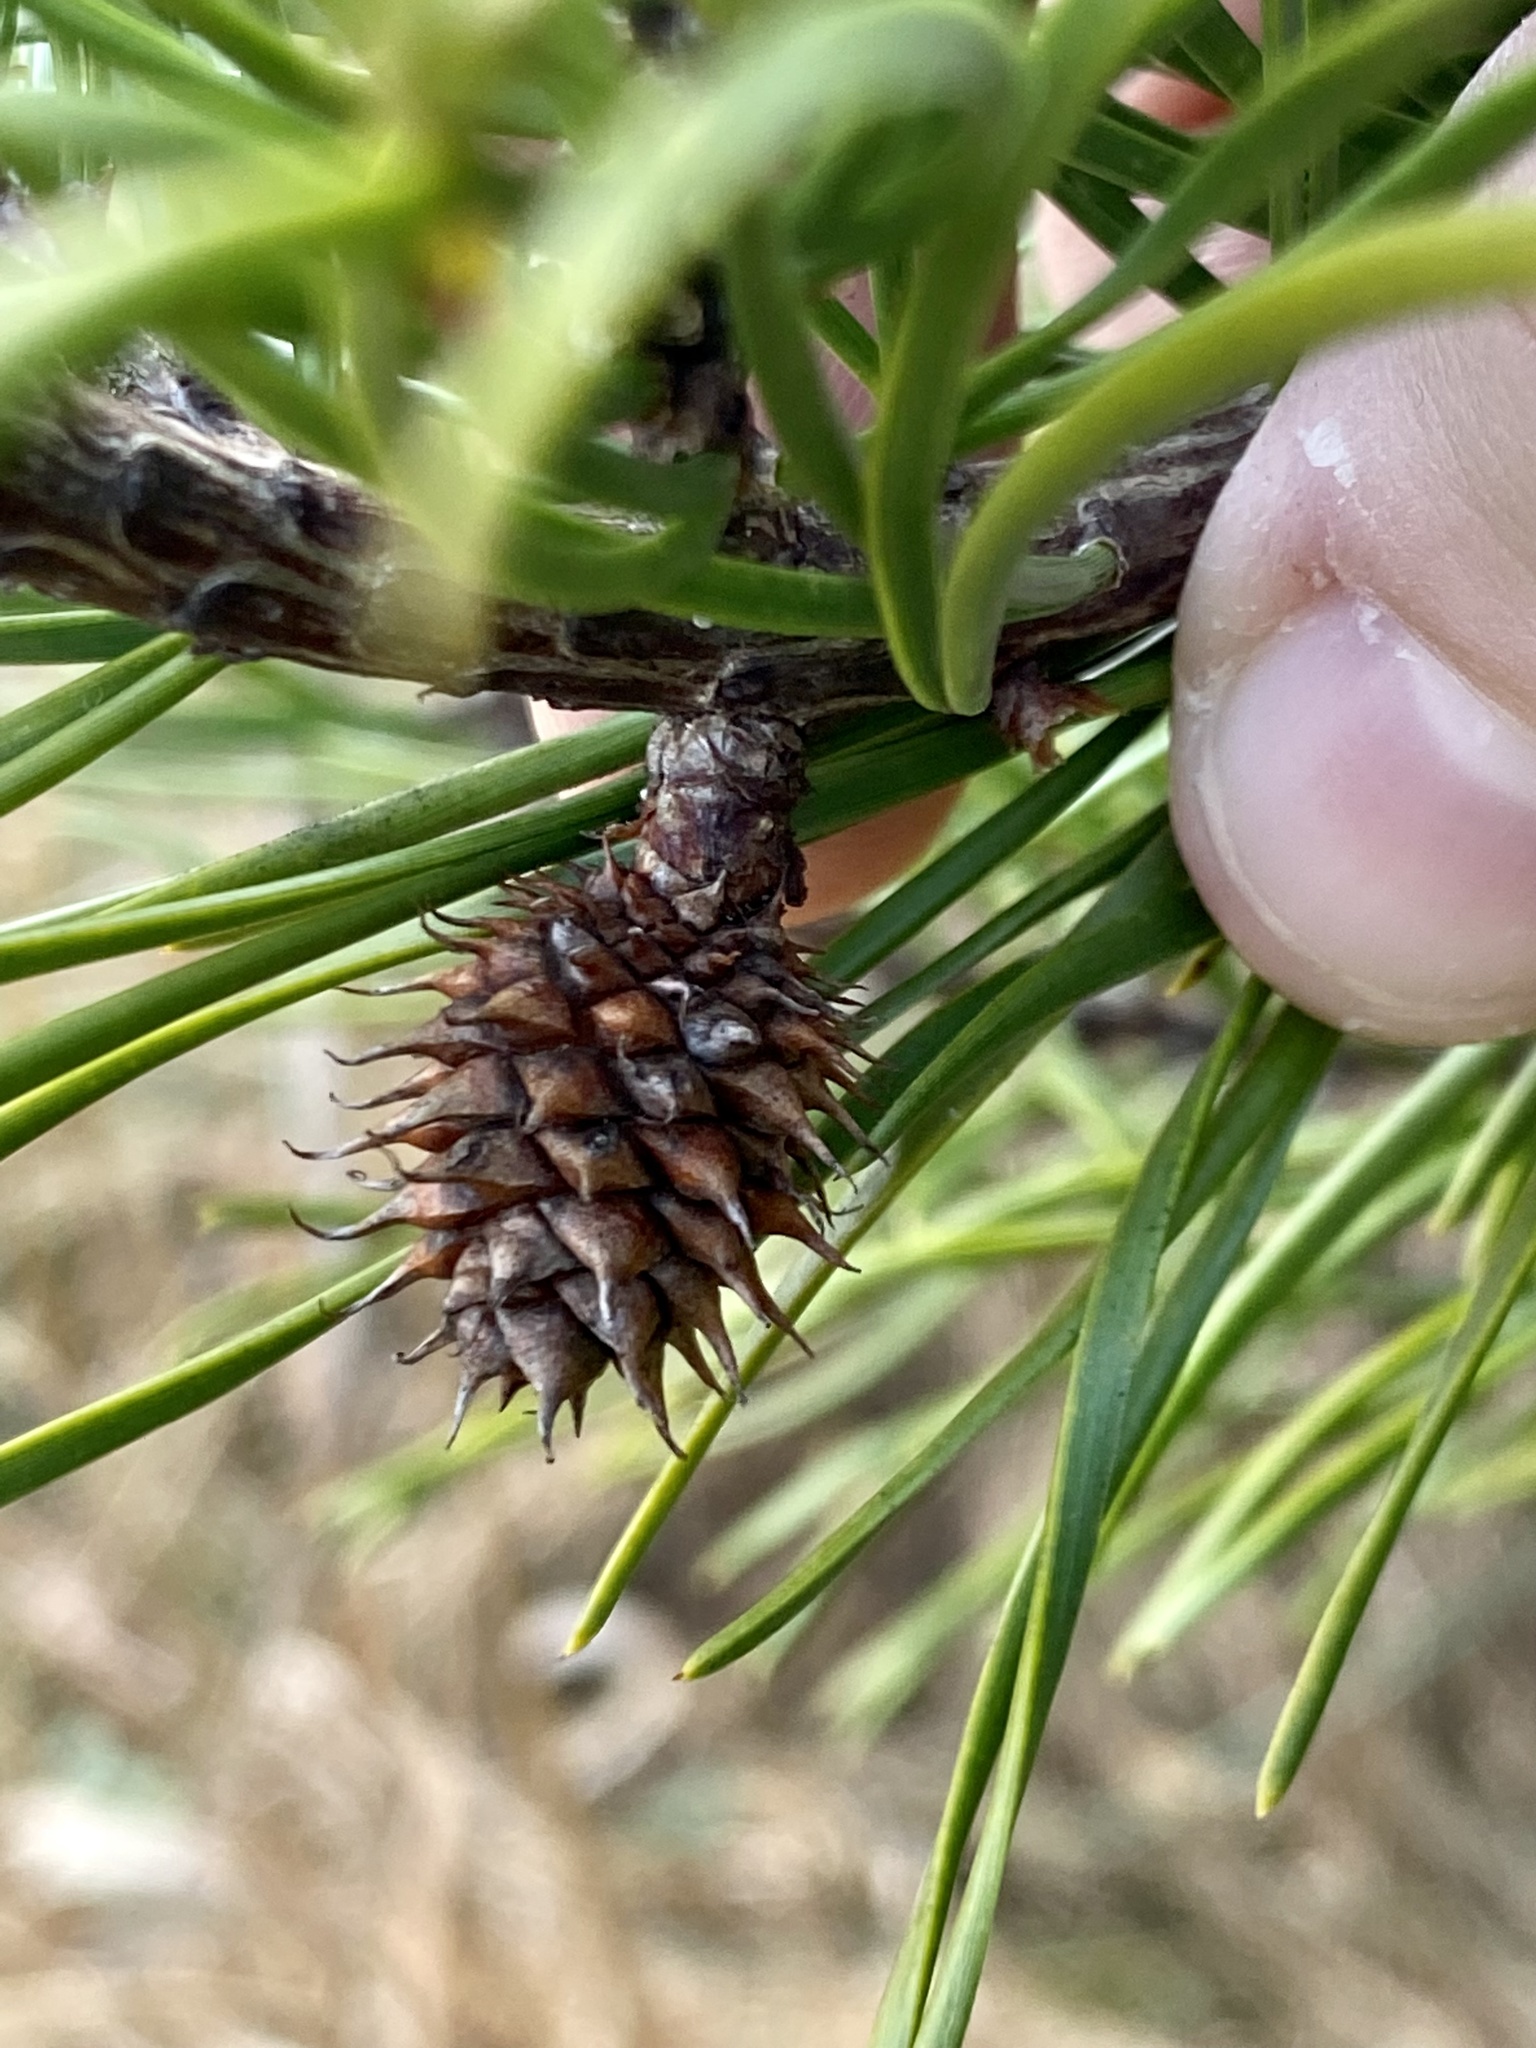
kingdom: Plantae
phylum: Tracheophyta
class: Pinopsida
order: Pinales
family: Pinaceae
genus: Pinus
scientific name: Pinus virginiana
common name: Scrub pine
